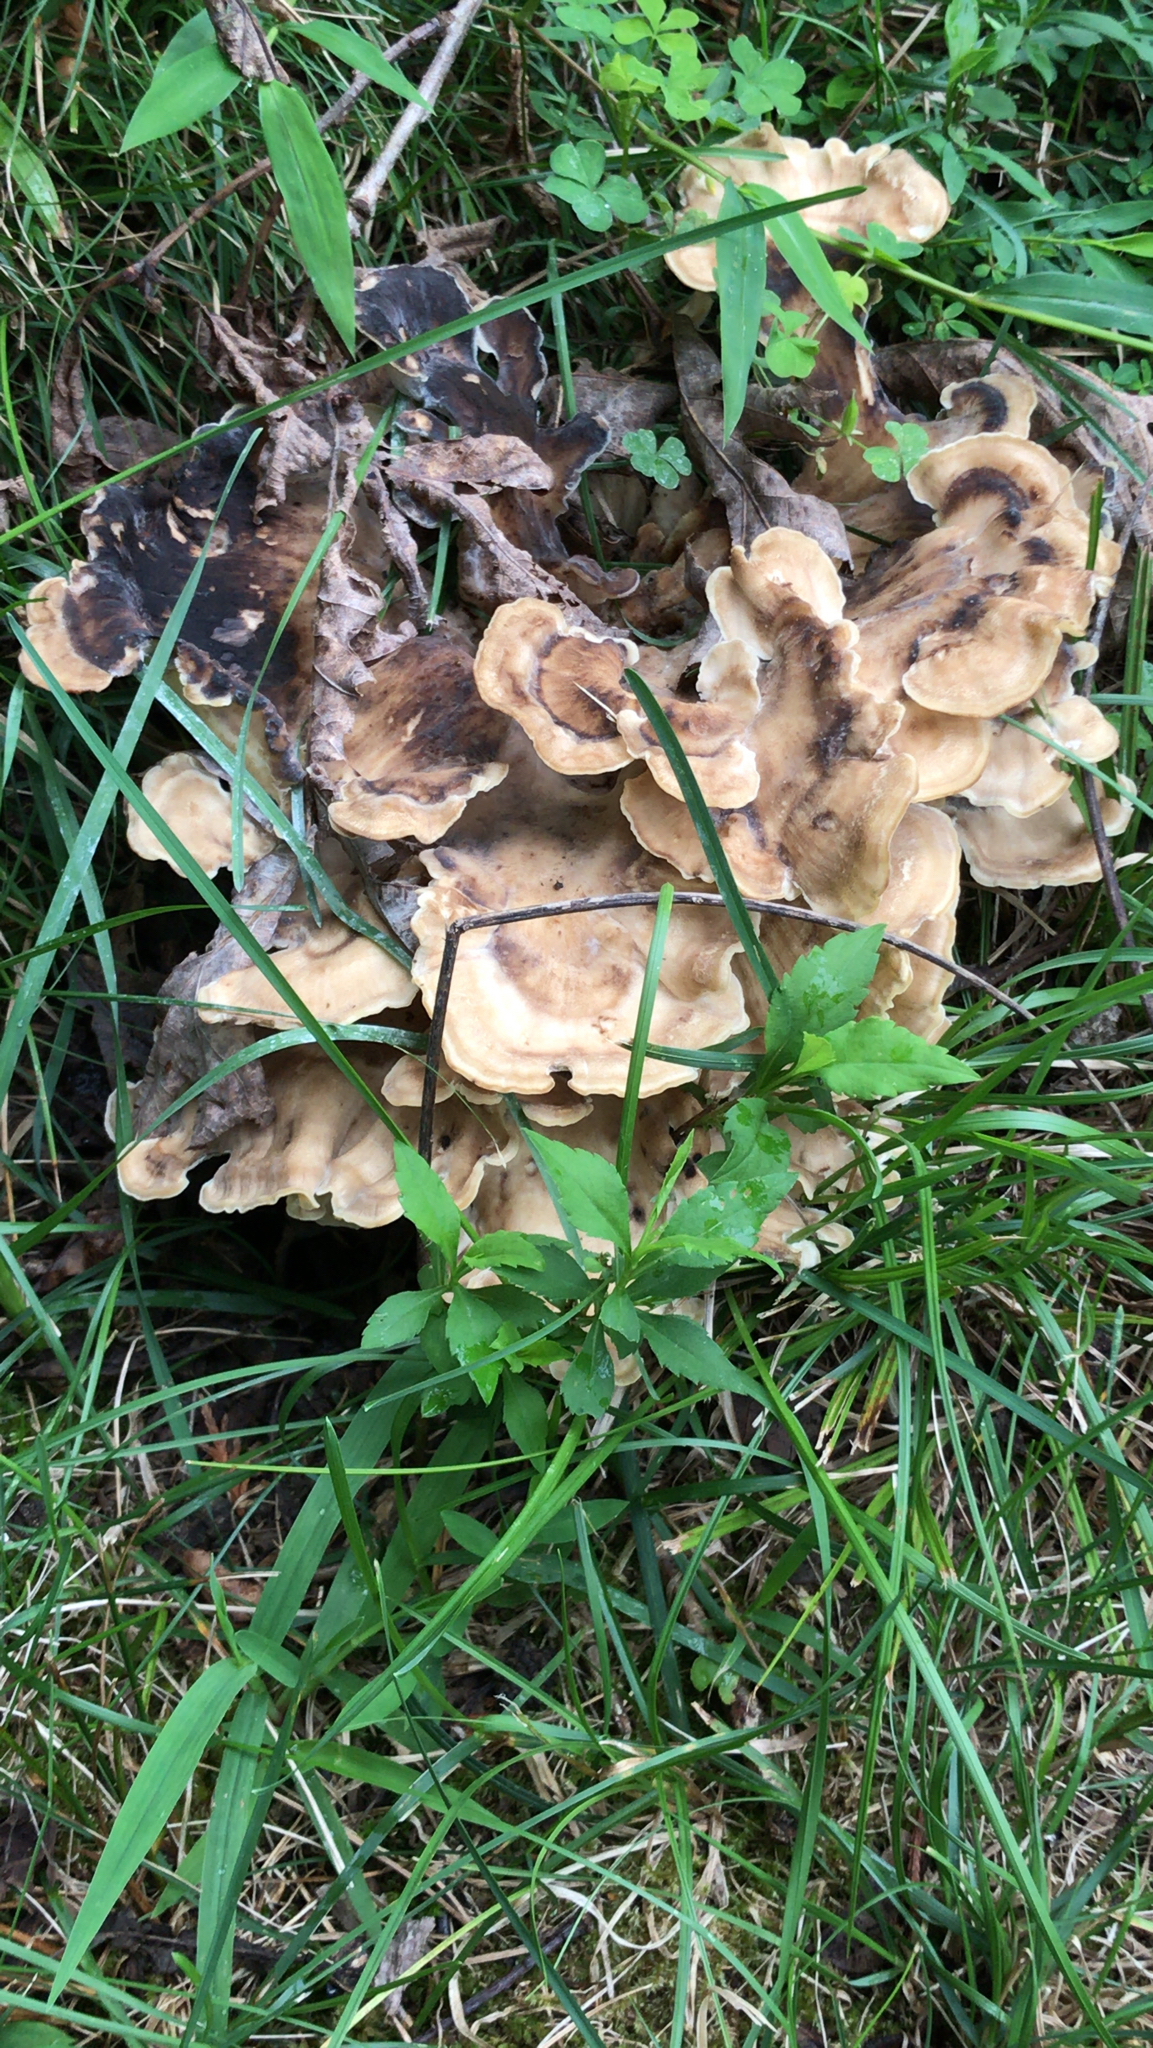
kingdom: Fungi
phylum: Basidiomycota
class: Agaricomycetes
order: Polyporales
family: Meripilaceae
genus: Meripilus
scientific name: Meripilus sumstinei
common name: Black-staining polypore
